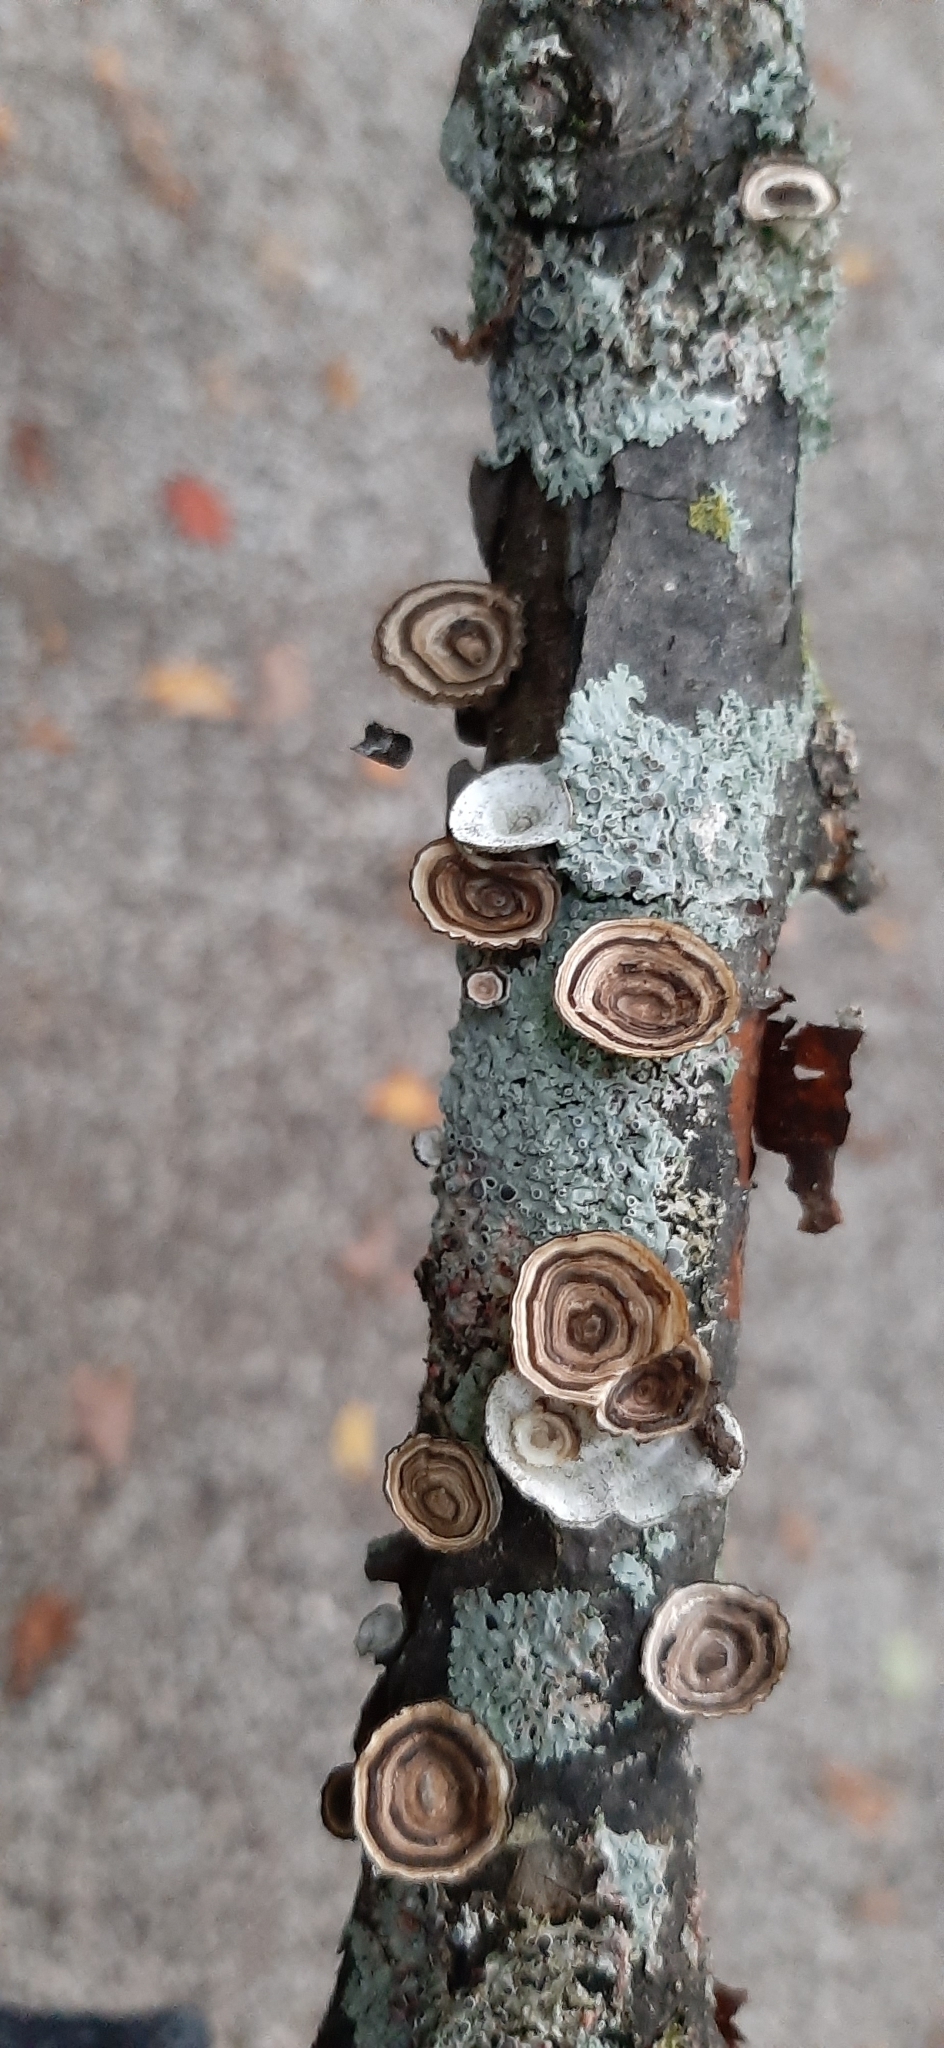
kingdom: Fungi
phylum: Basidiomycota
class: Agaricomycetes
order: Polyporales
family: Polyporaceae
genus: Poronidulus
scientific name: Poronidulus conchifer
